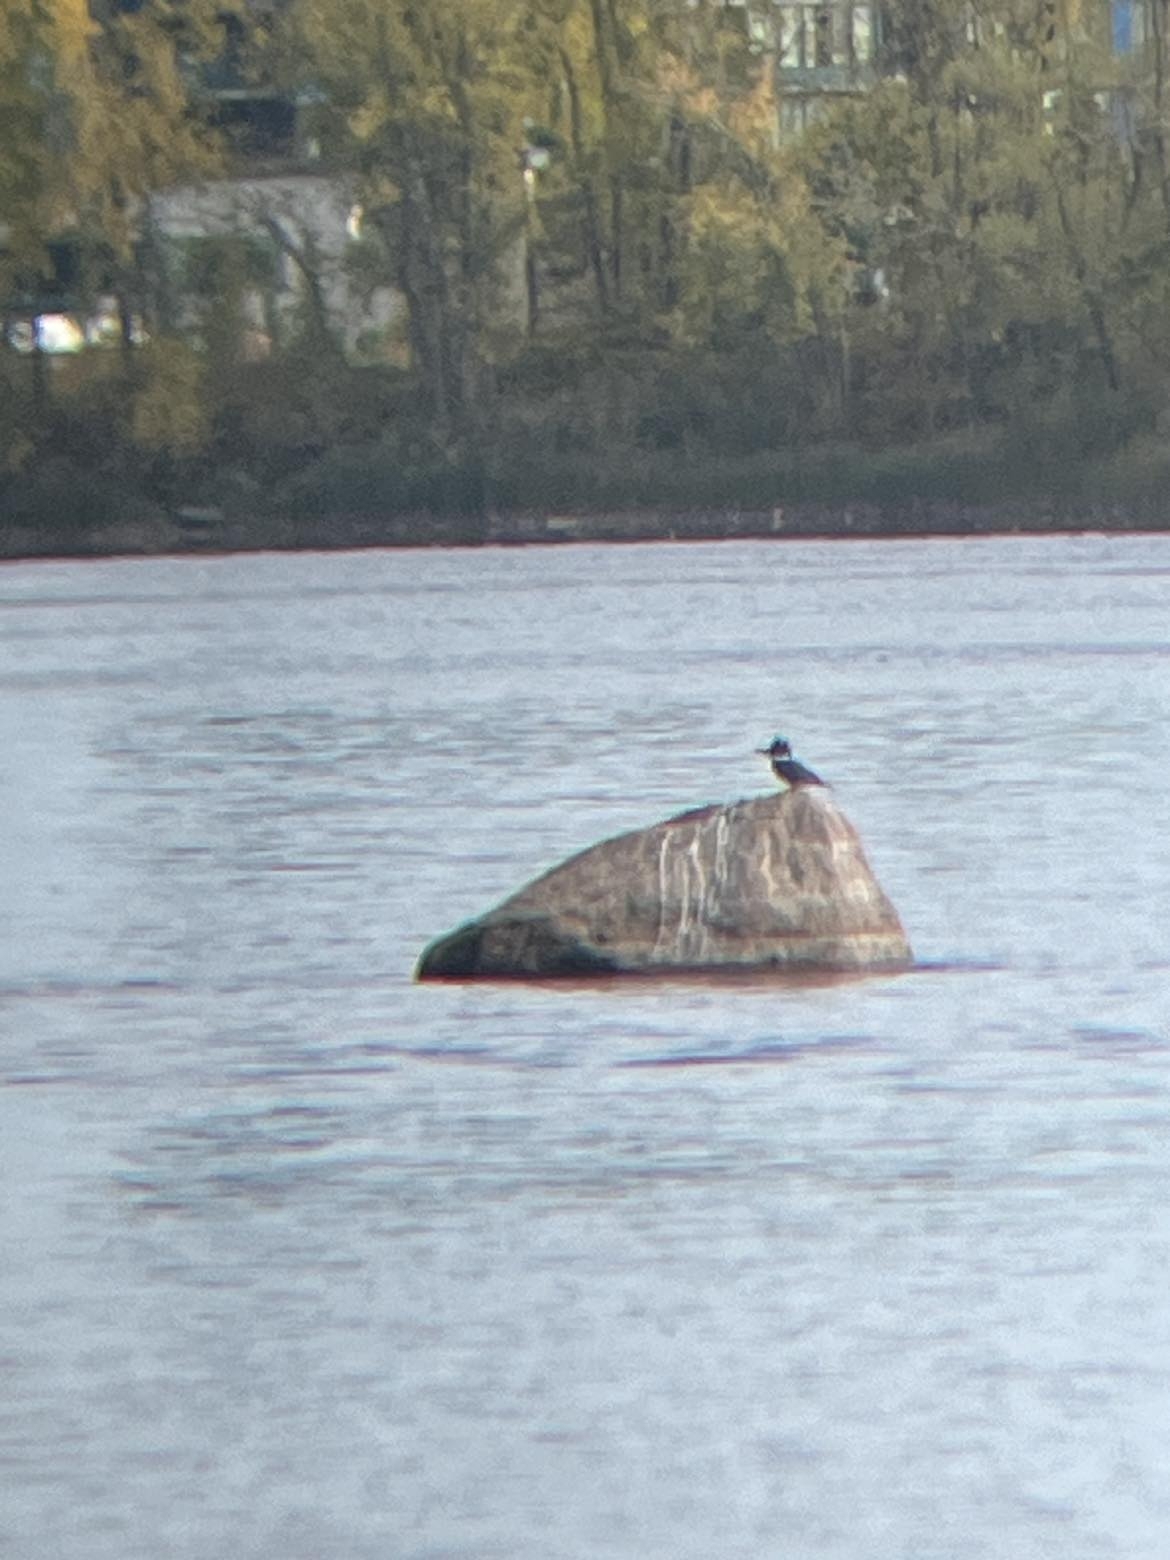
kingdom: Animalia
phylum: Chordata
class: Aves
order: Coraciiformes
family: Alcedinidae
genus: Megaceryle
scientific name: Megaceryle alcyon
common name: Belted kingfisher
